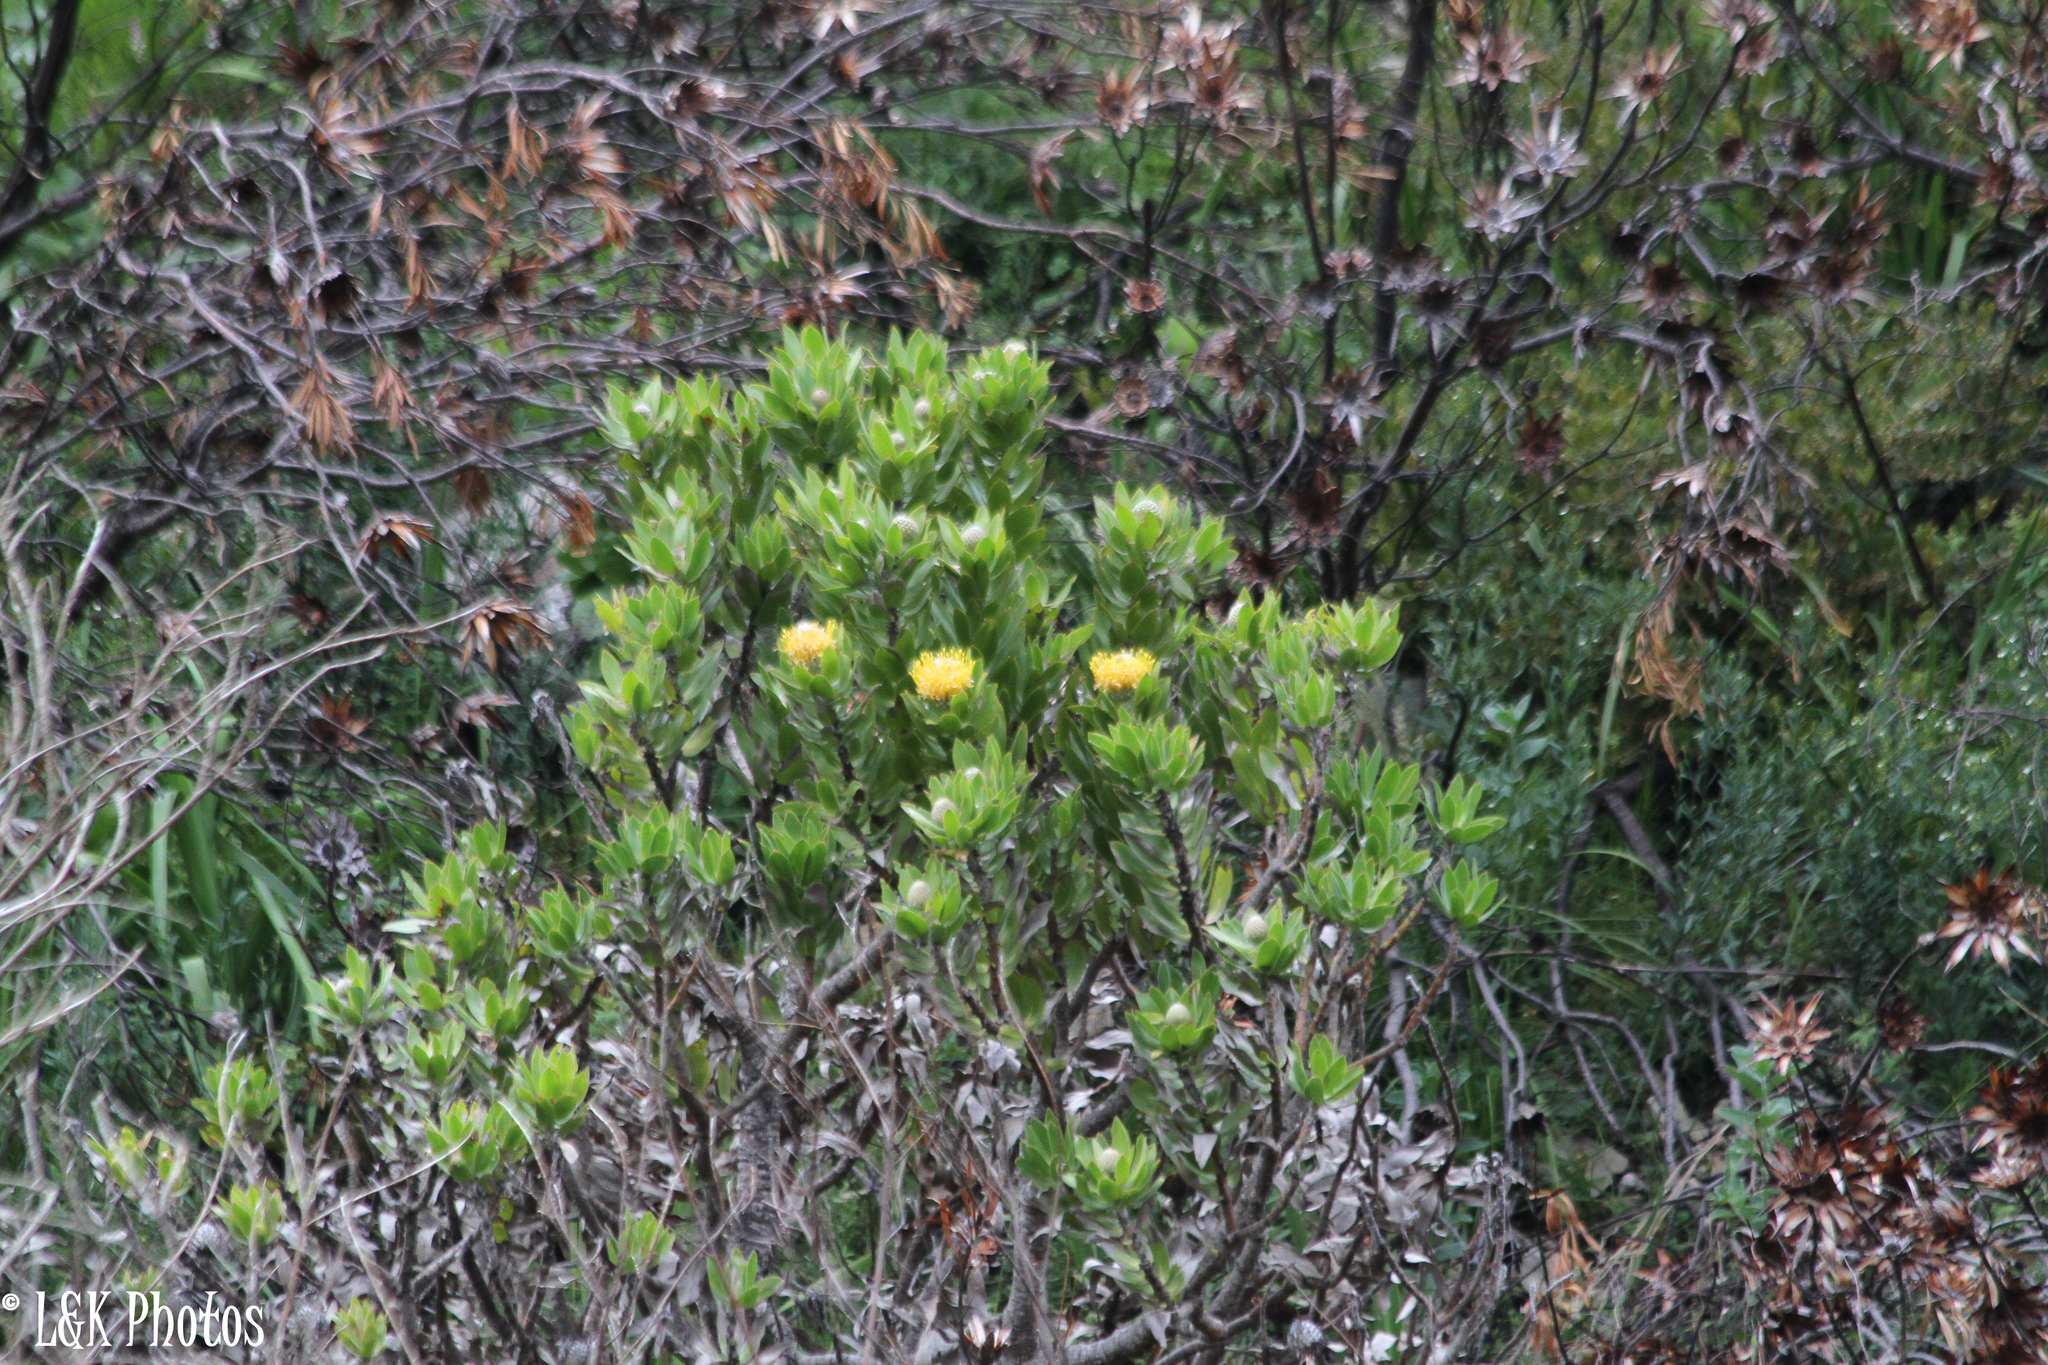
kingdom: Plantae
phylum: Tracheophyta
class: Magnoliopsida
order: Proteales
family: Proteaceae
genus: Leucospermum
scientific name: Leucospermum conocarpodendron
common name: Tree pincushion
